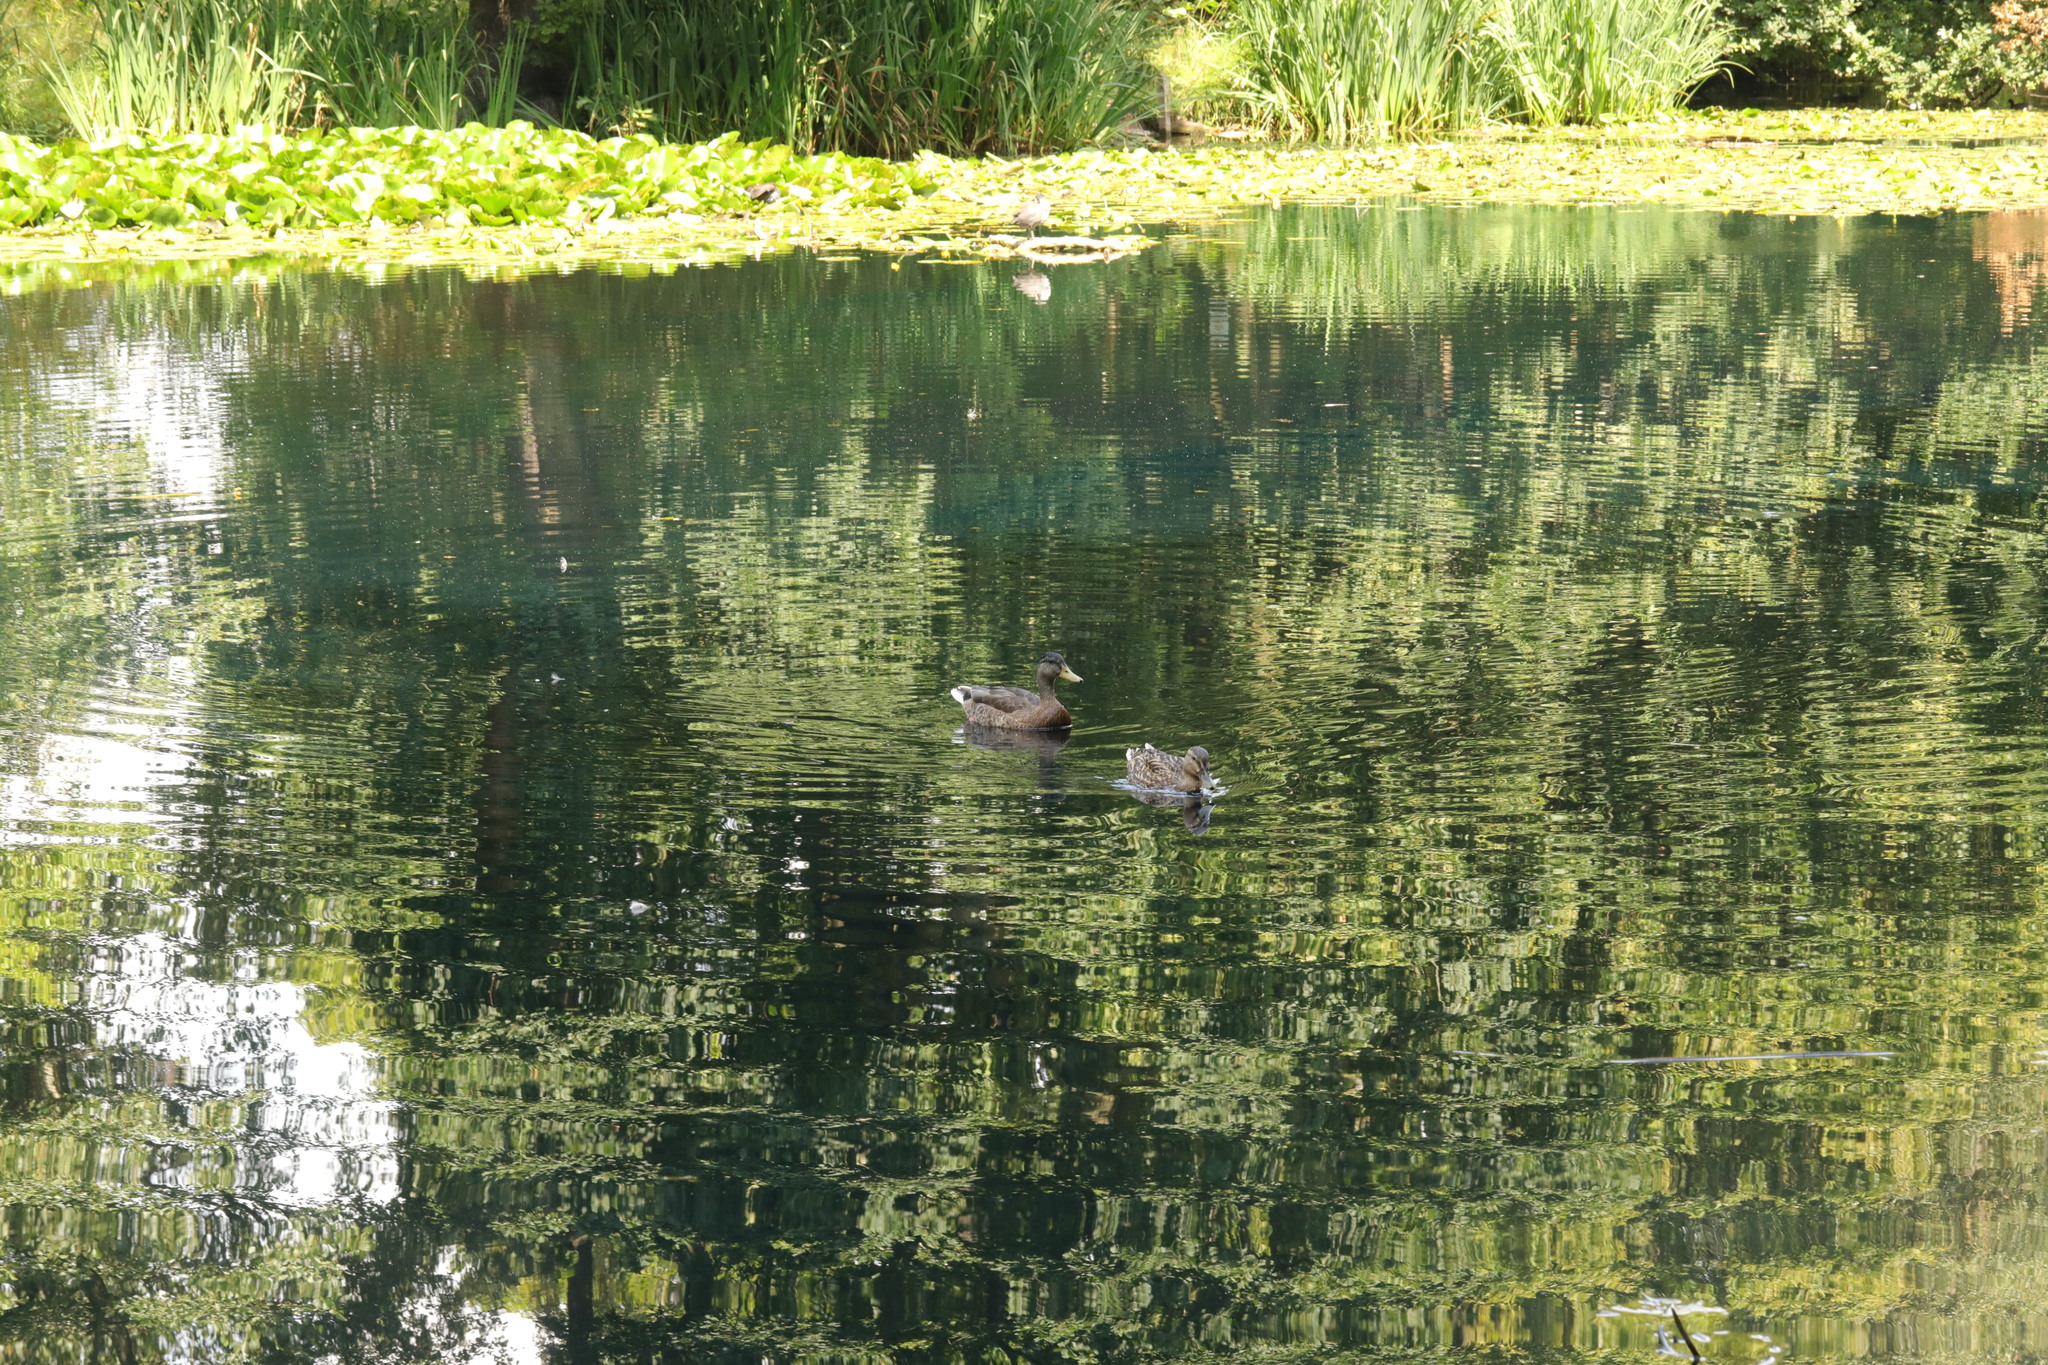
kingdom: Animalia
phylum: Chordata
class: Aves
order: Anseriformes
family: Anatidae
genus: Anas
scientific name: Anas platyrhynchos
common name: Mallard
